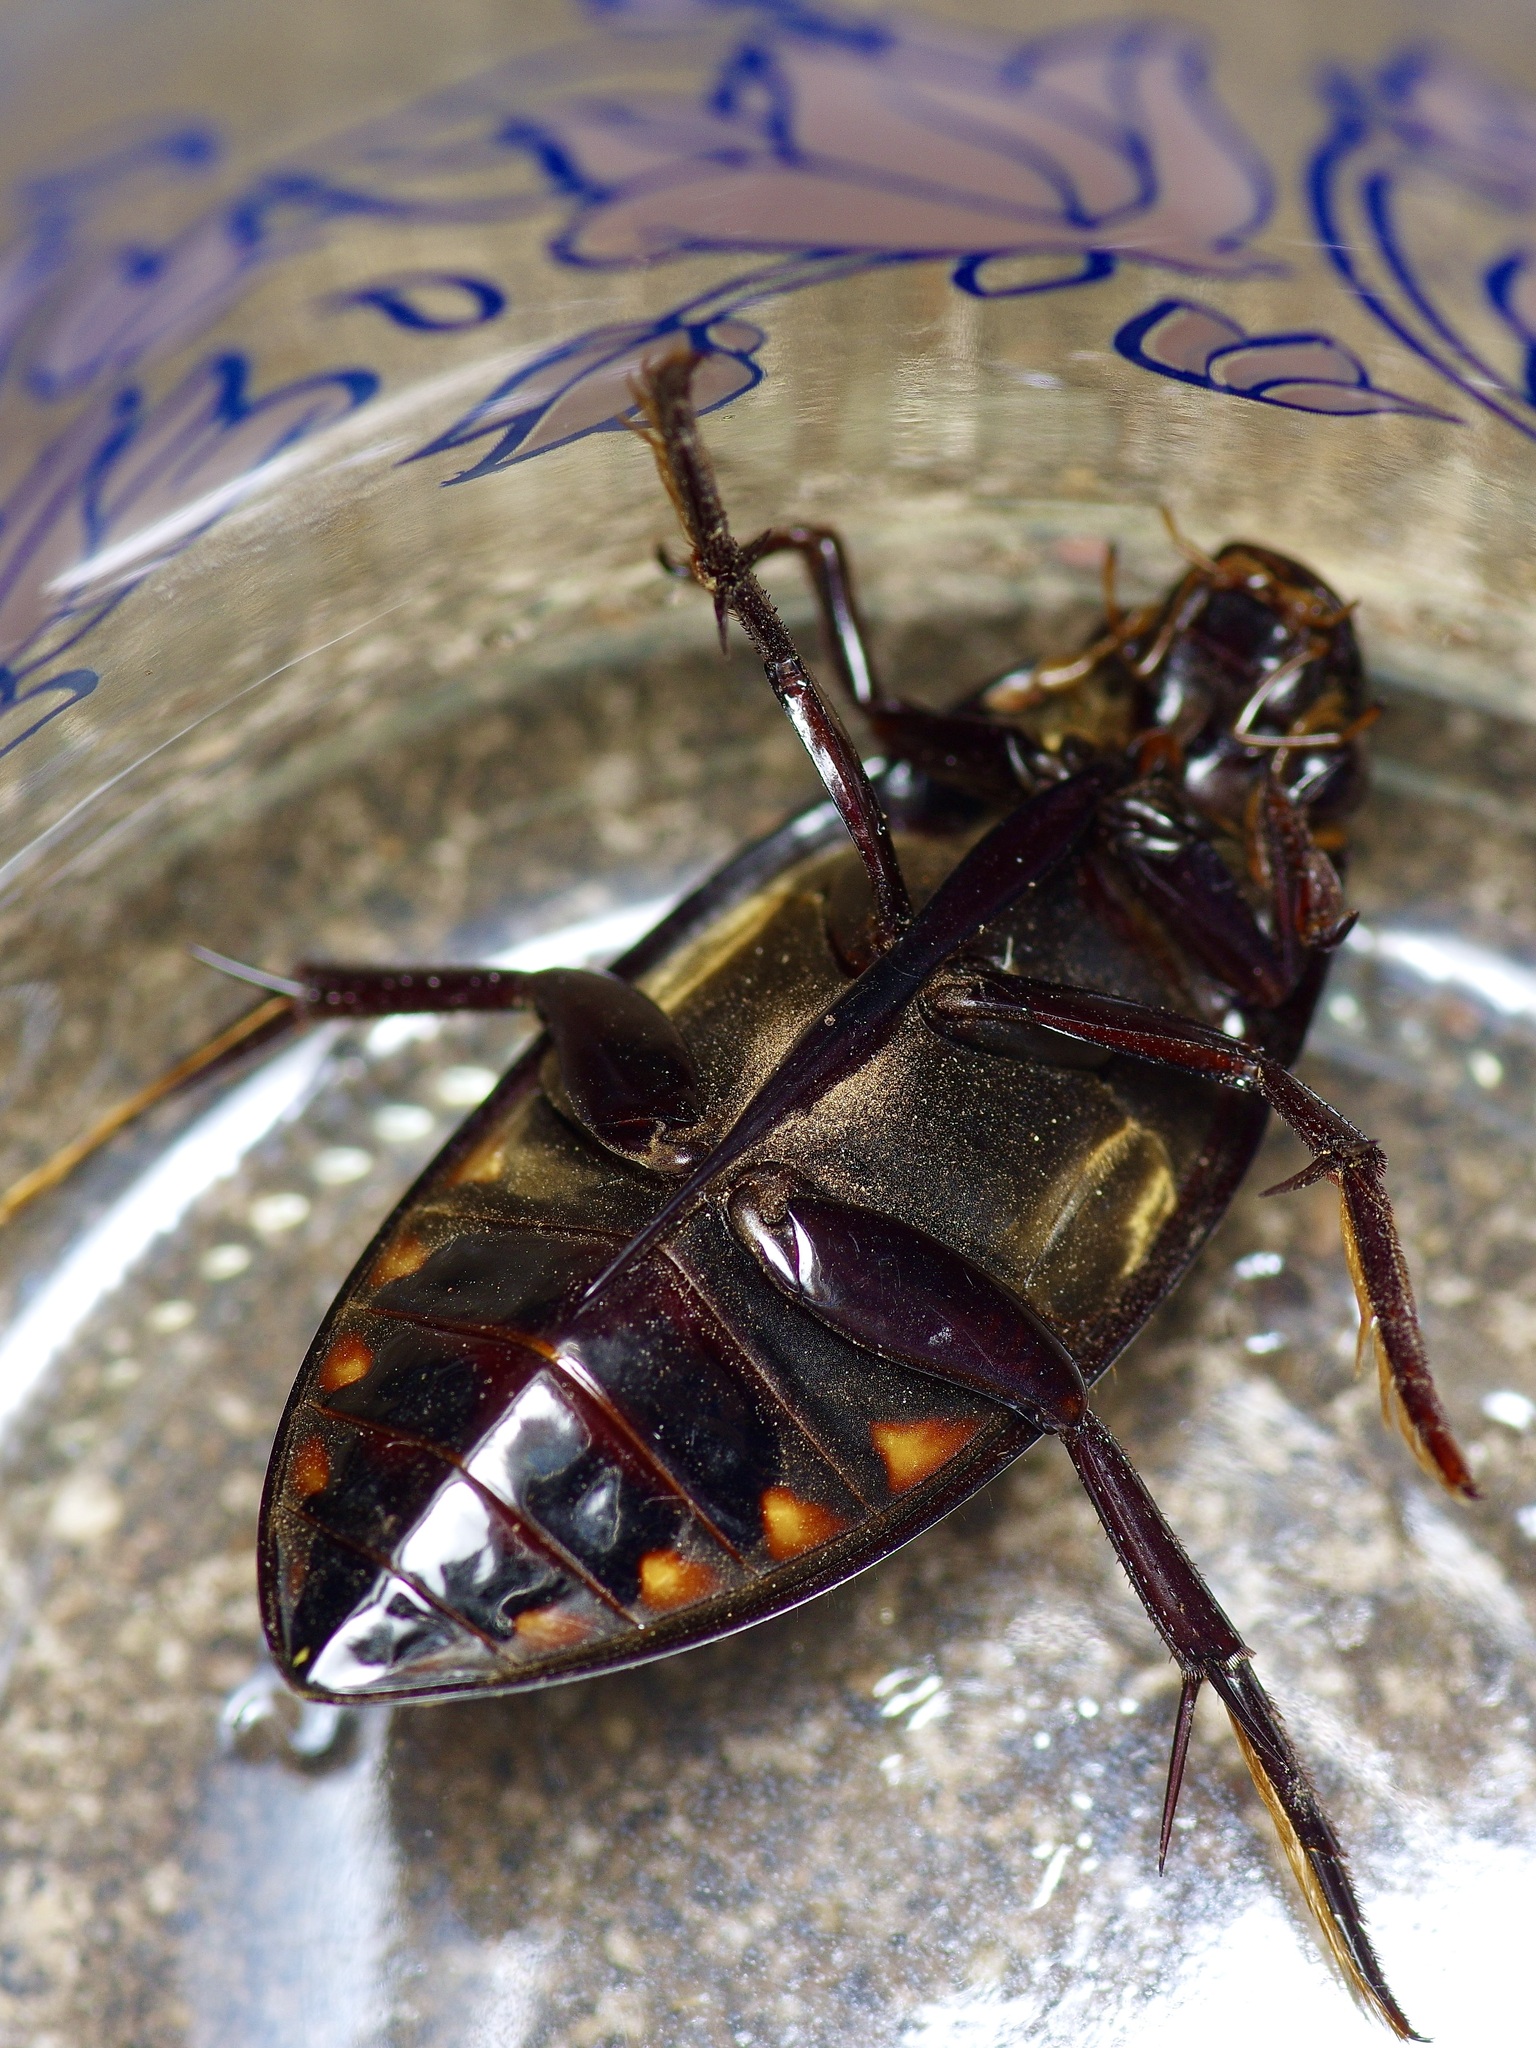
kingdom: Animalia
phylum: Arthropoda
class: Insecta
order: Coleoptera
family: Hydrophilidae
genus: Hydrophilus
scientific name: Hydrophilus triangularis
